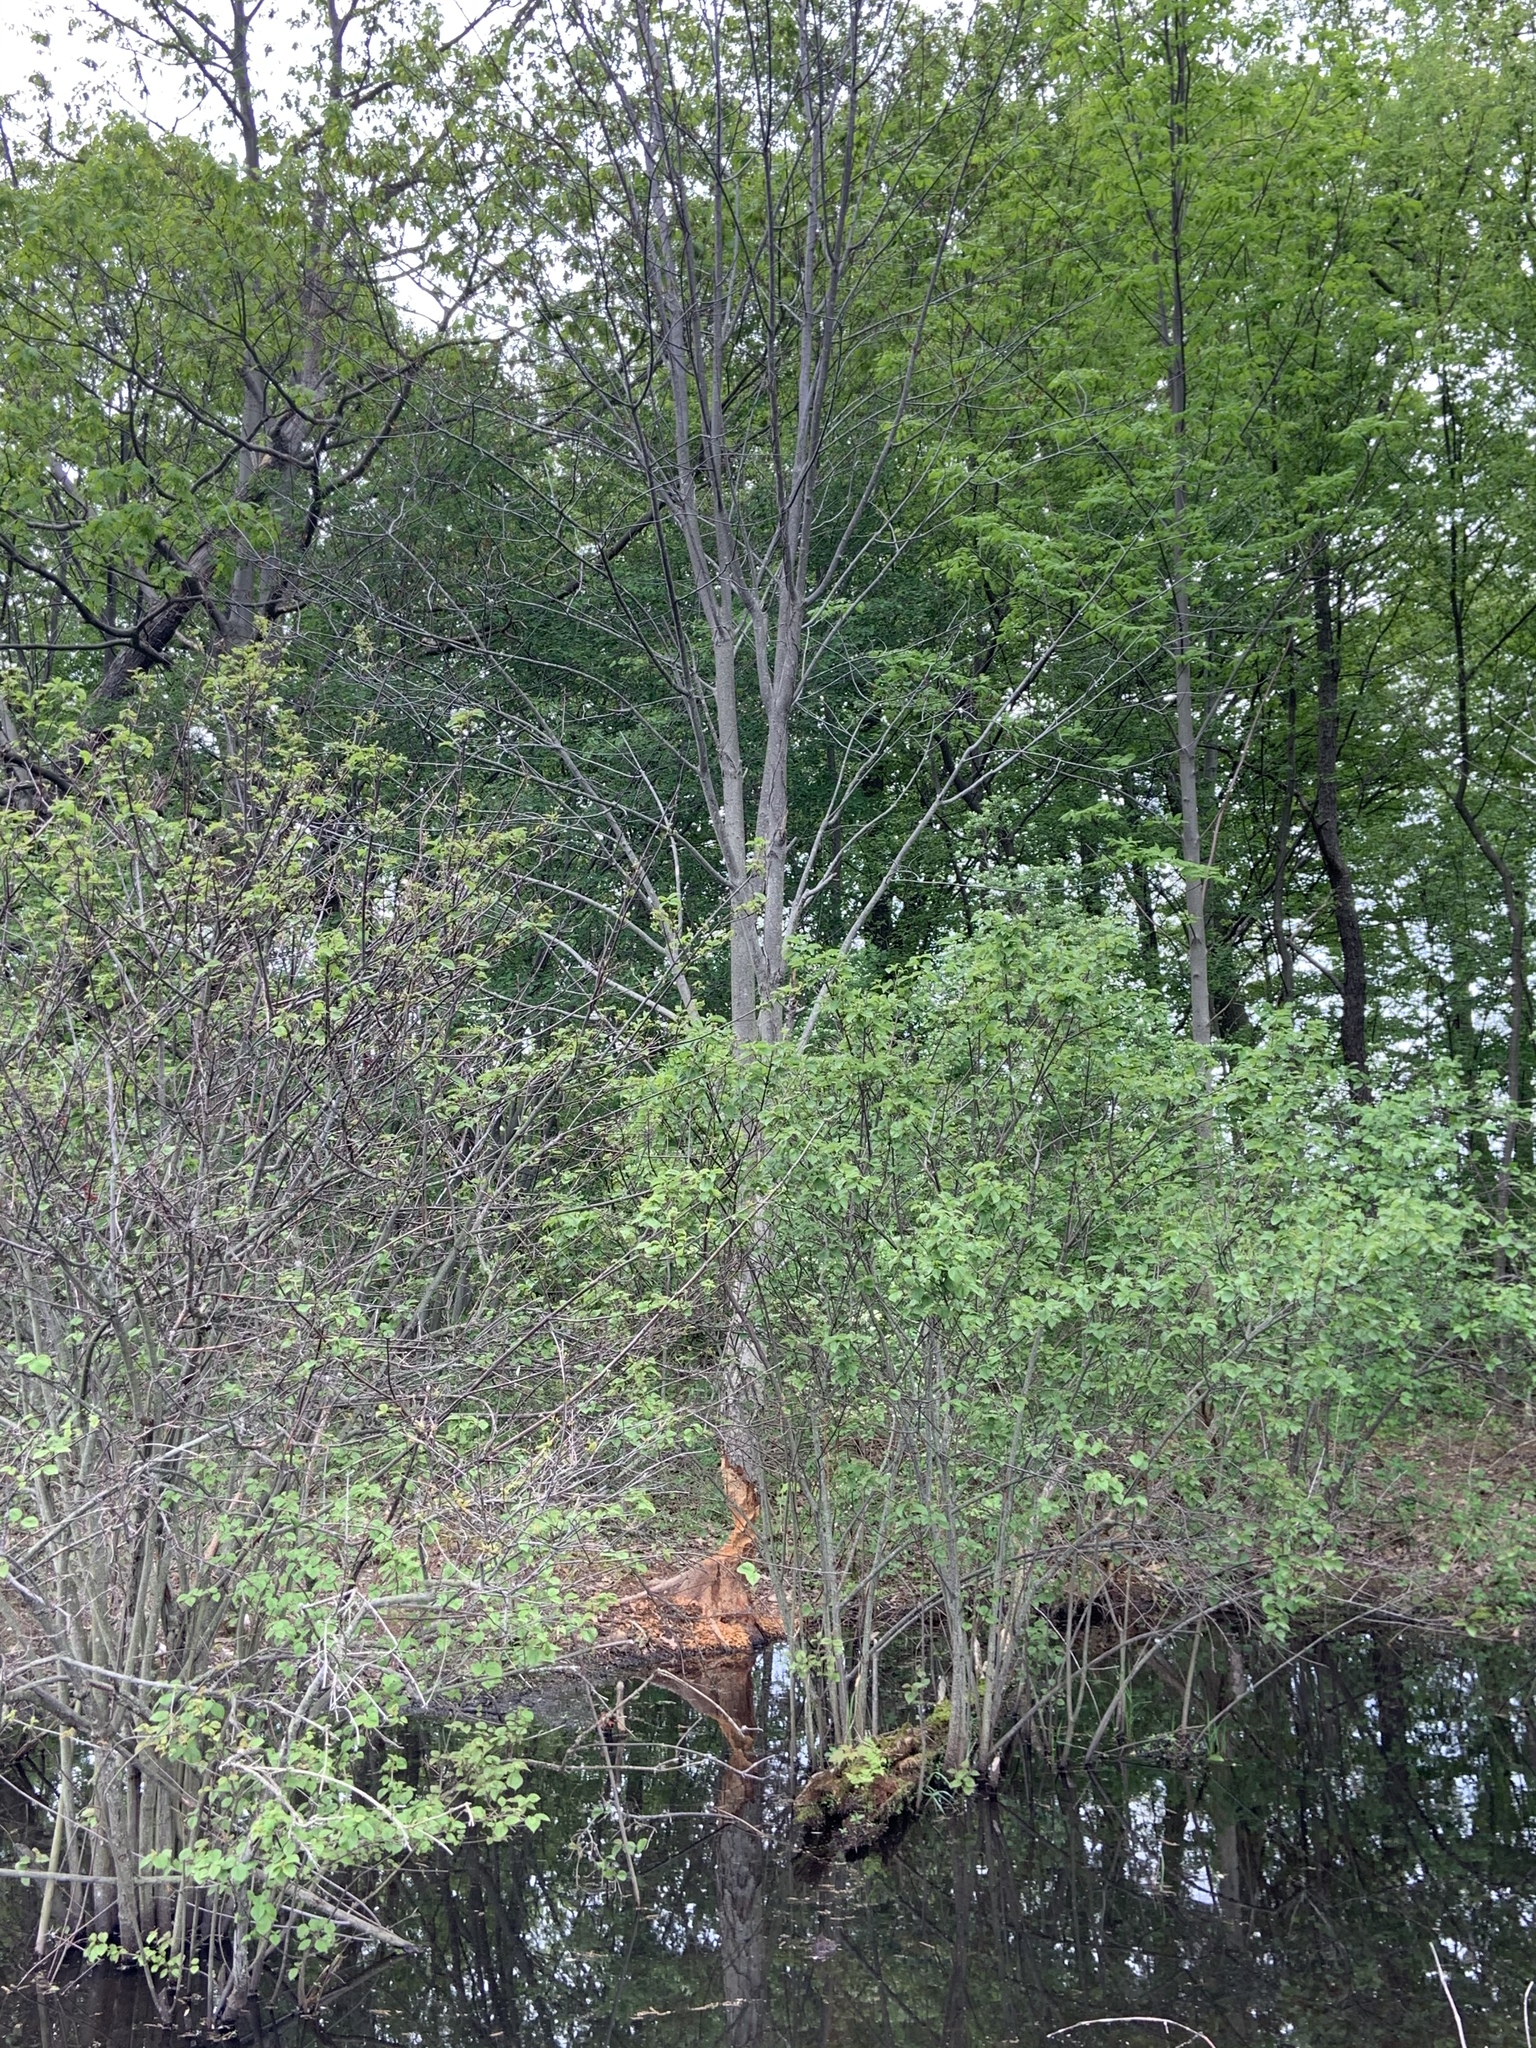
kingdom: Animalia
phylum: Chordata
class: Mammalia
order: Rodentia
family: Castoridae
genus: Castor
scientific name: Castor canadensis
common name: American beaver
